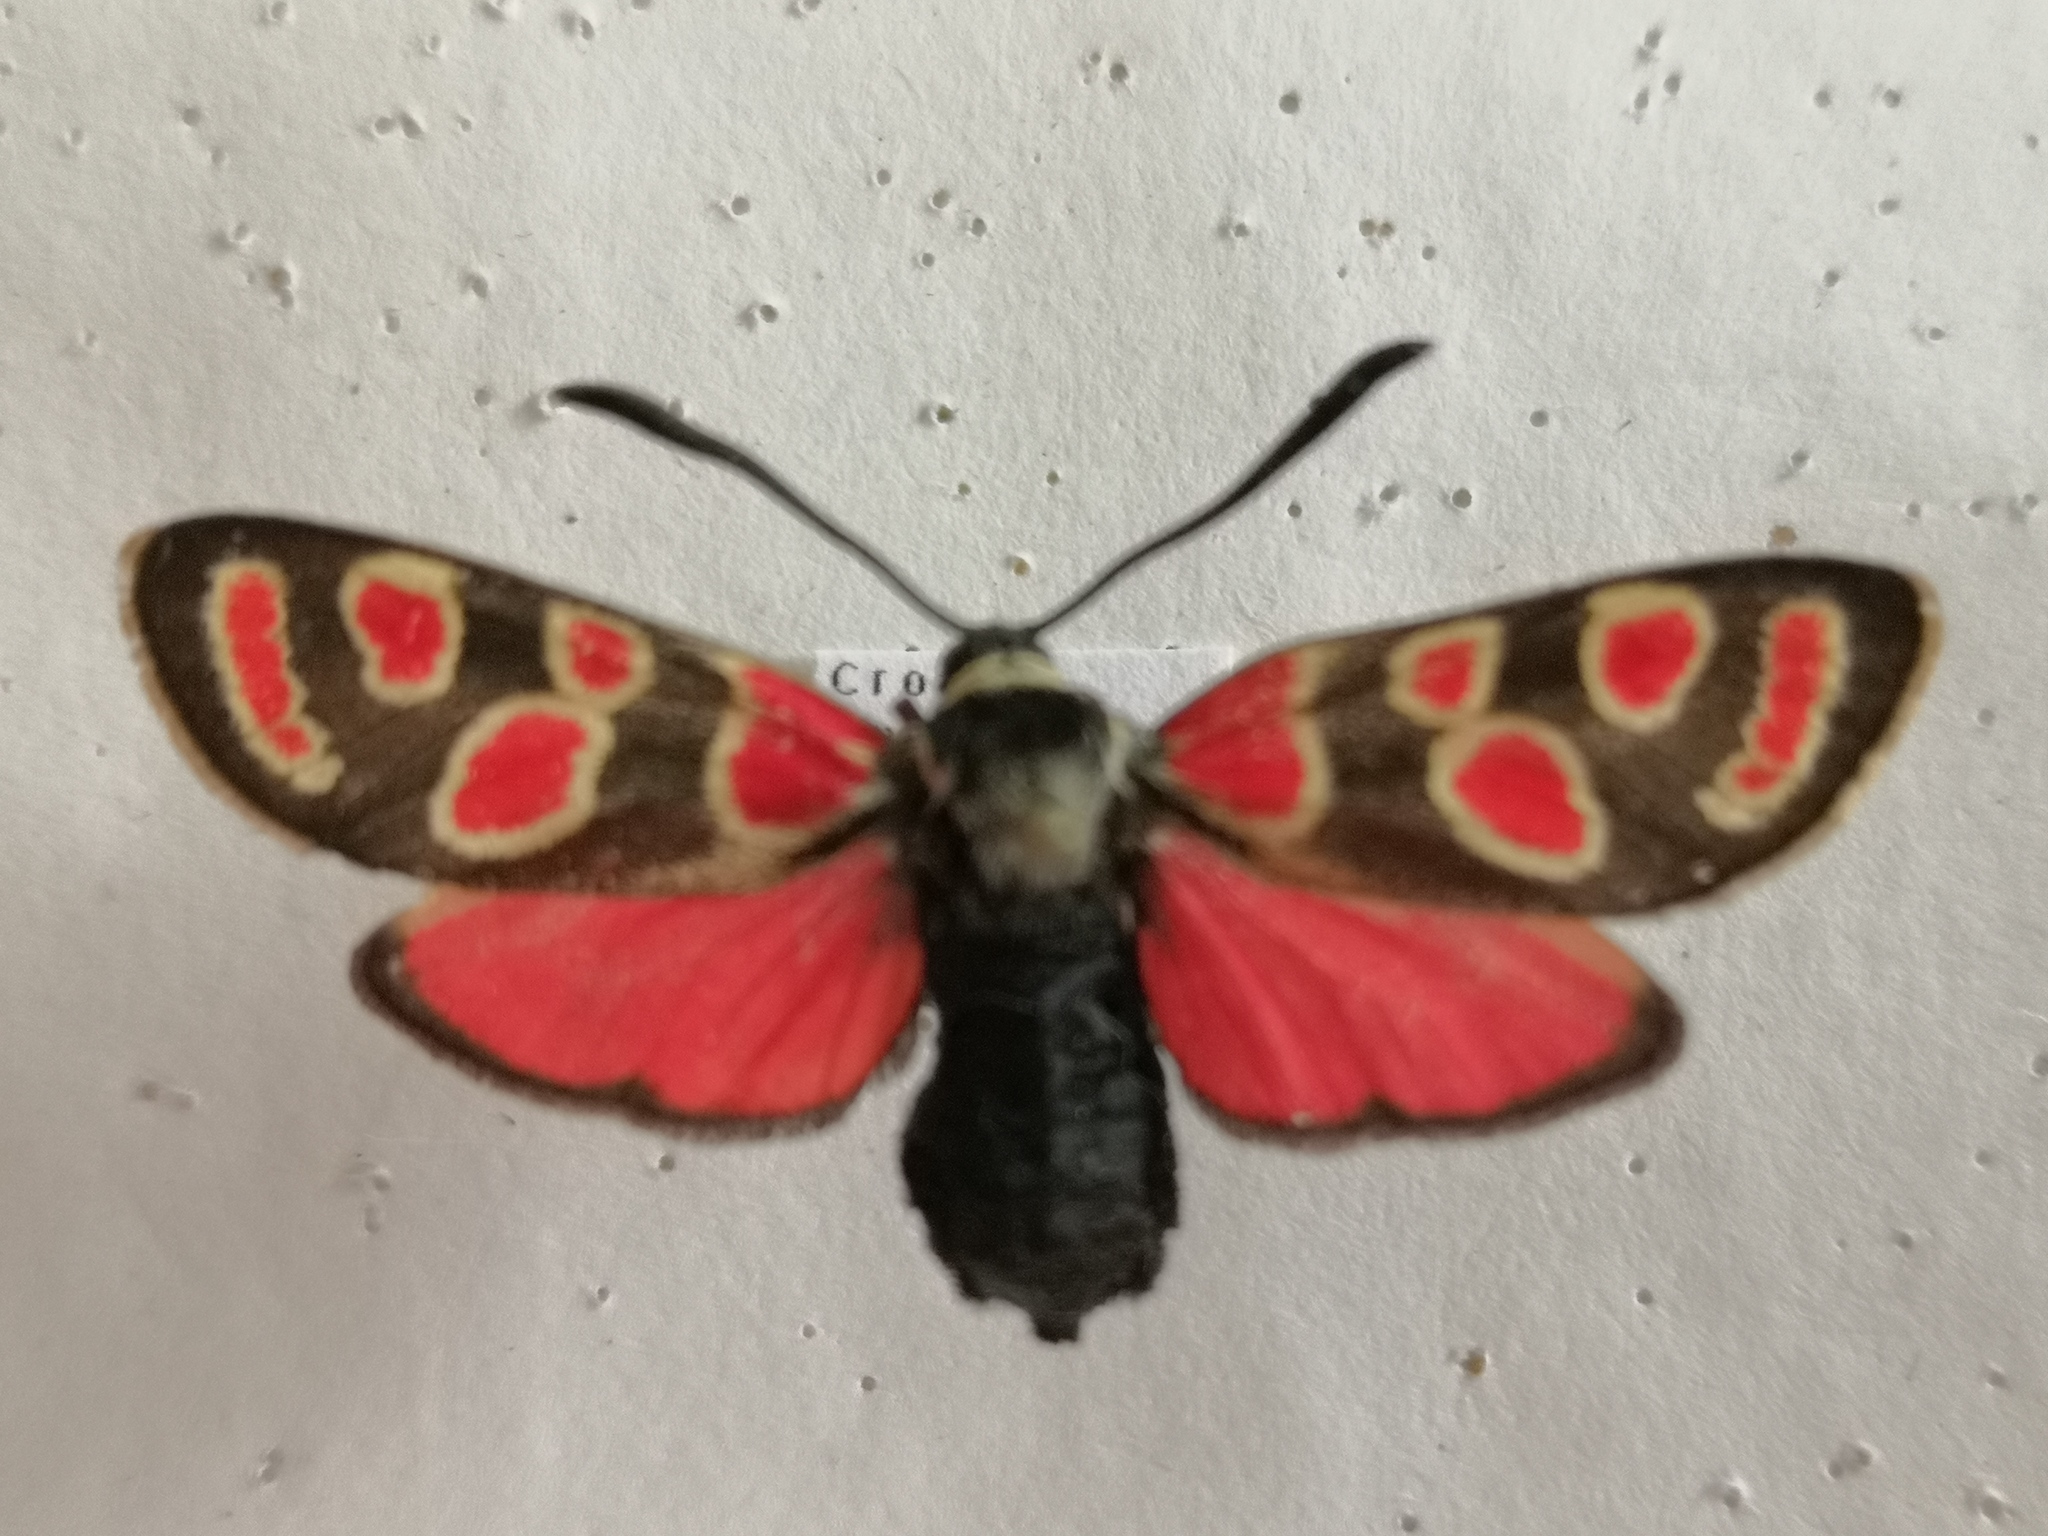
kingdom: Animalia
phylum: Arthropoda
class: Insecta
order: Lepidoptera
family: Zygaenidae
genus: Zygaena
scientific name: Zygaena carniolica
